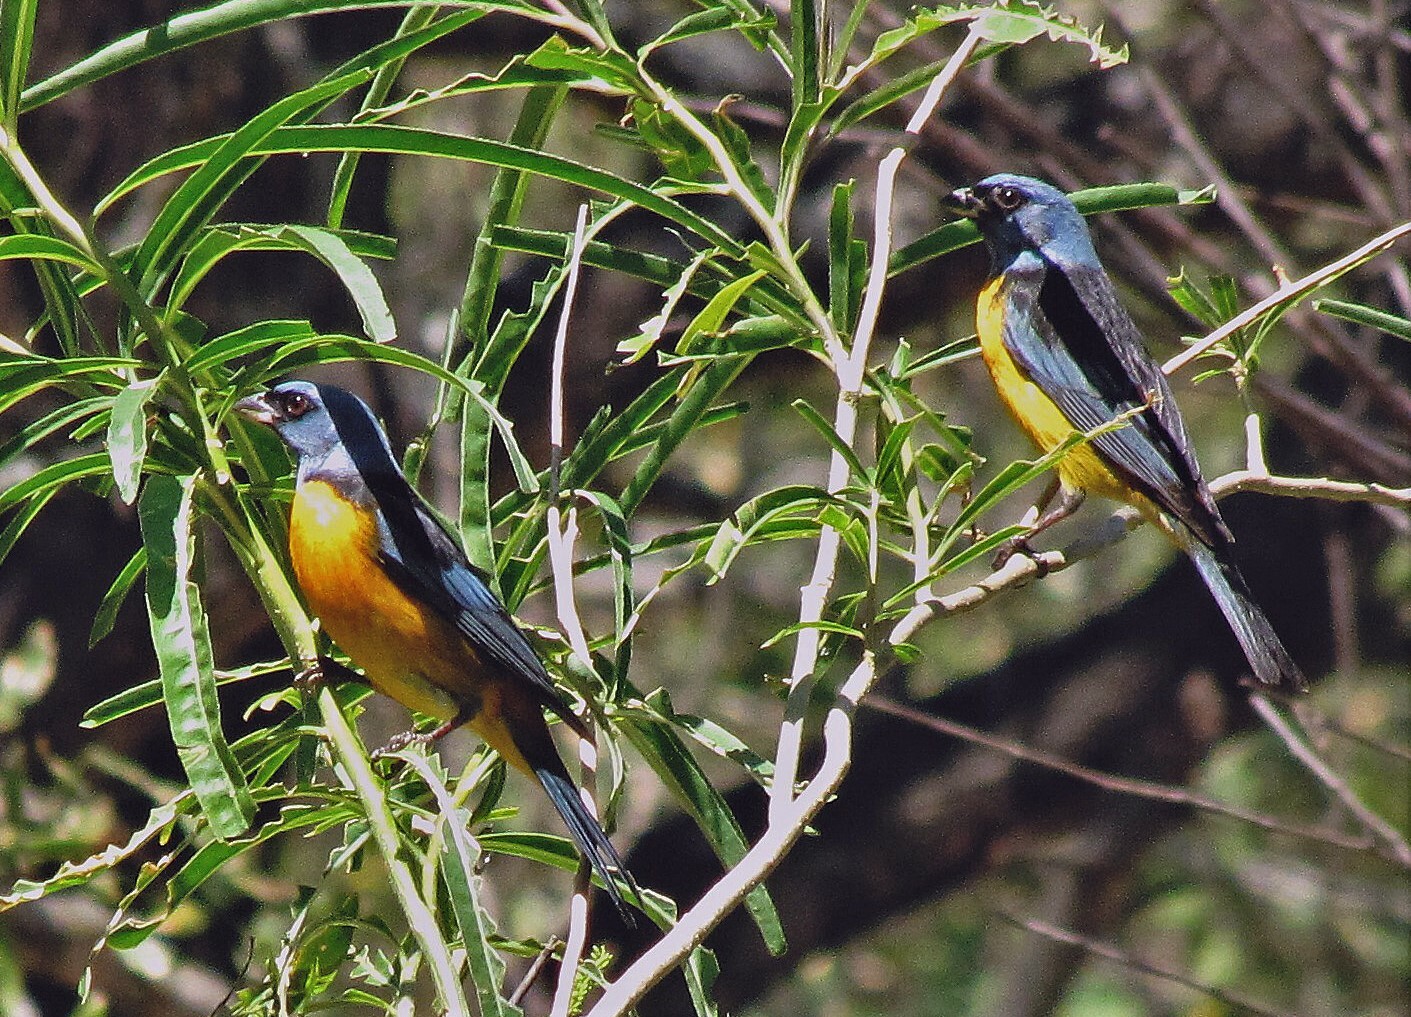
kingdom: Animalia
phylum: Chordata
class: Aves
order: Passeriformes
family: Thraupidae
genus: Rauenia
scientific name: Rauenia bonariensis
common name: Blue-and-yellow tanager
